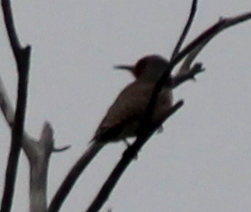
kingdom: Animalia
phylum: Chordata
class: Aves
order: Piciformes
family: Picidae
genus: Colaptes
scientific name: Colaptes auratus
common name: Northern flicker
